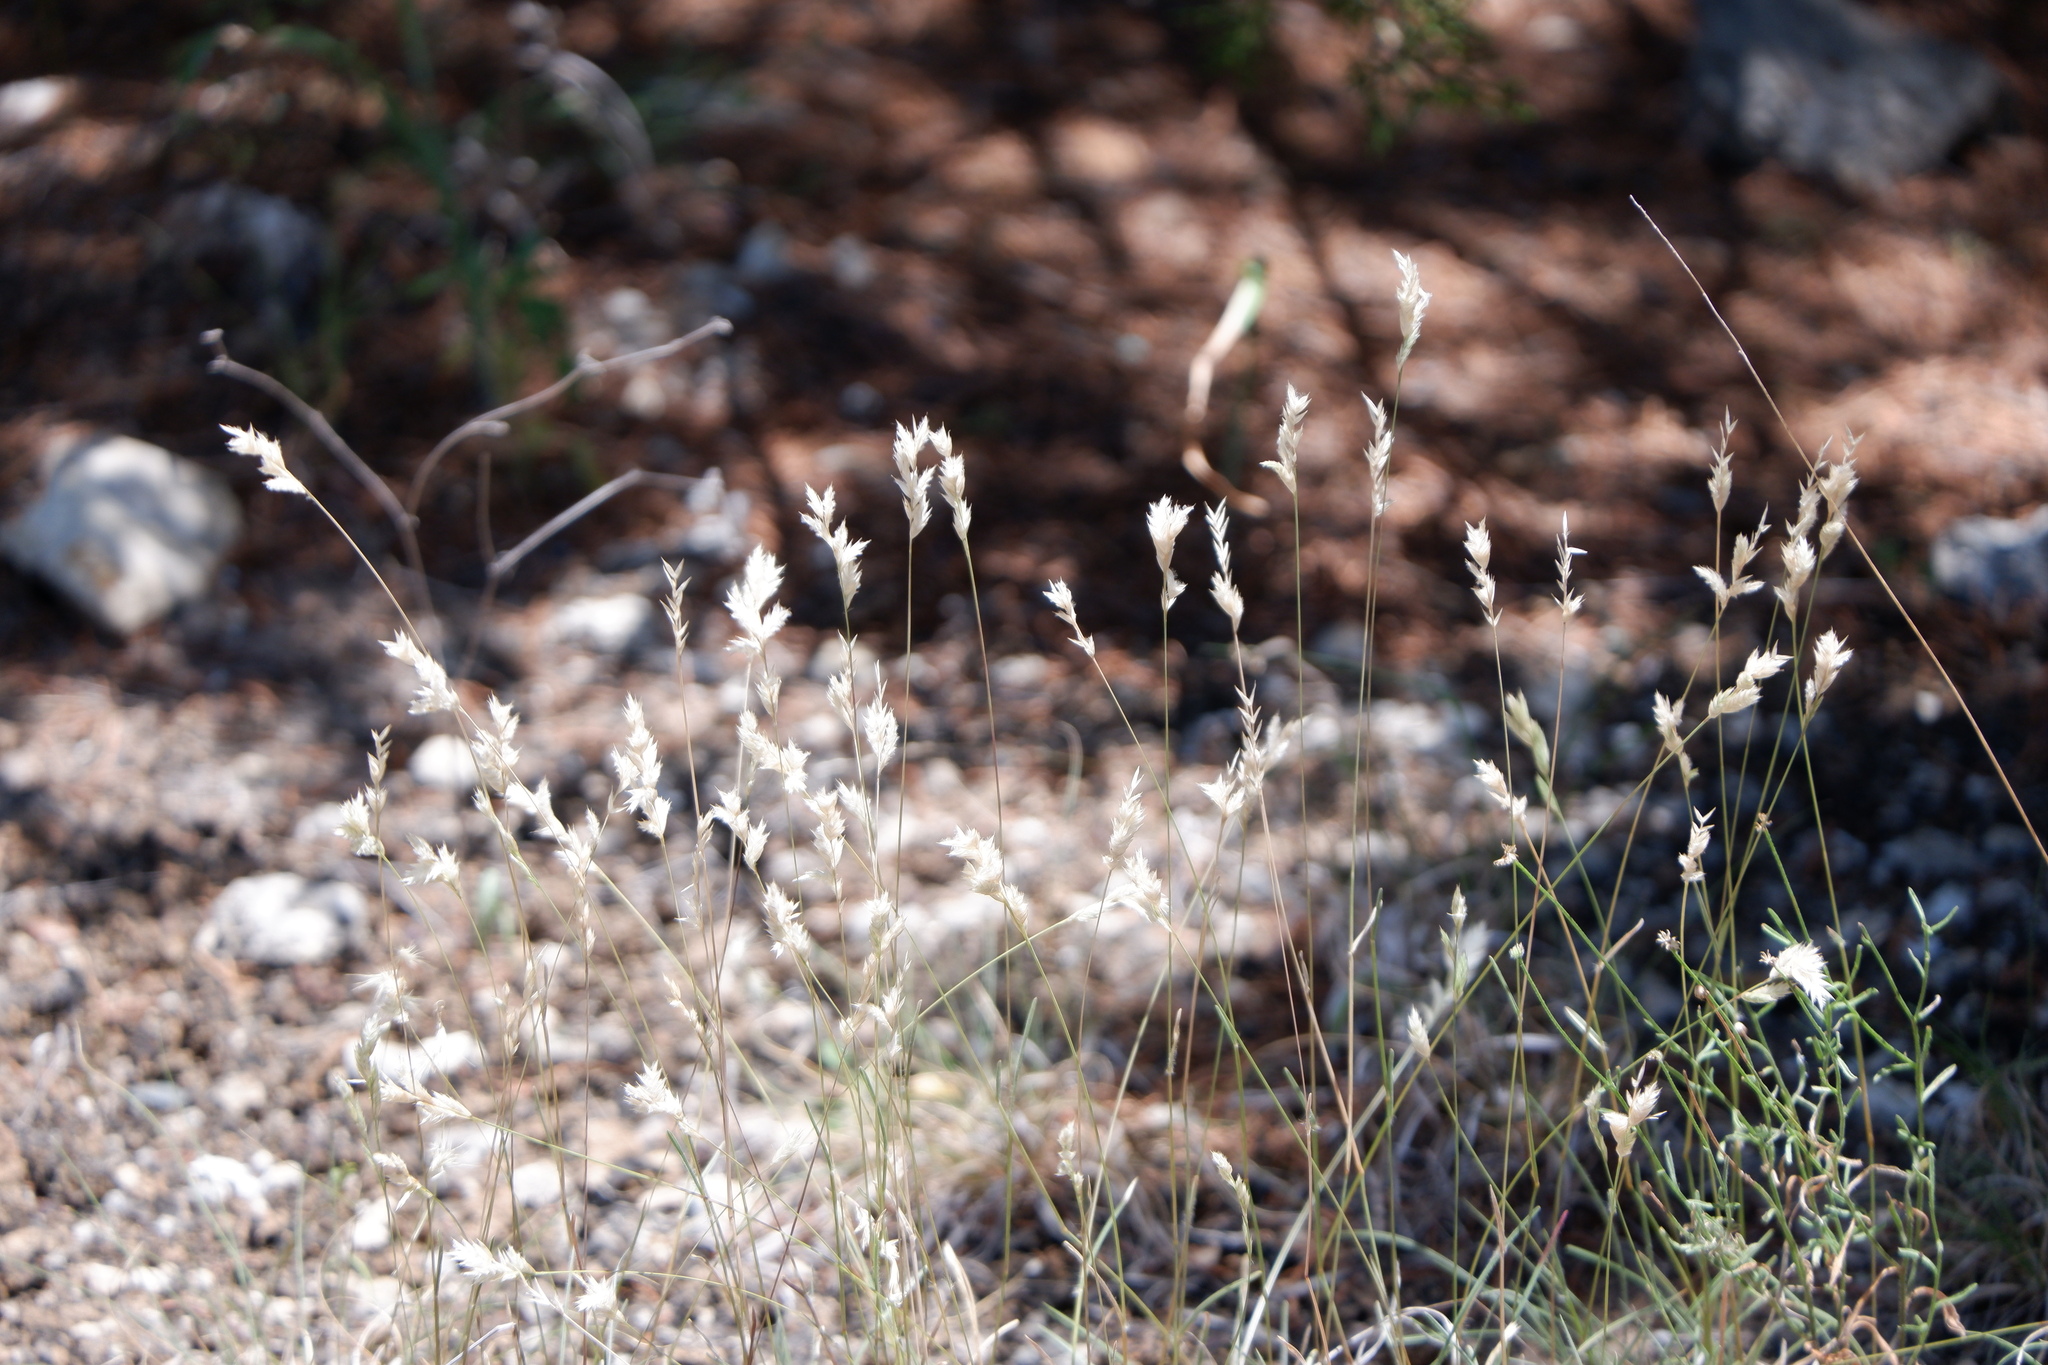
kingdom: Plantae
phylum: Tracheophyta
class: Liliopsida
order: Poales
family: Poaceae
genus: Erioneuron
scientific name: Erioneuron pilosum
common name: Hairy woolly grass
